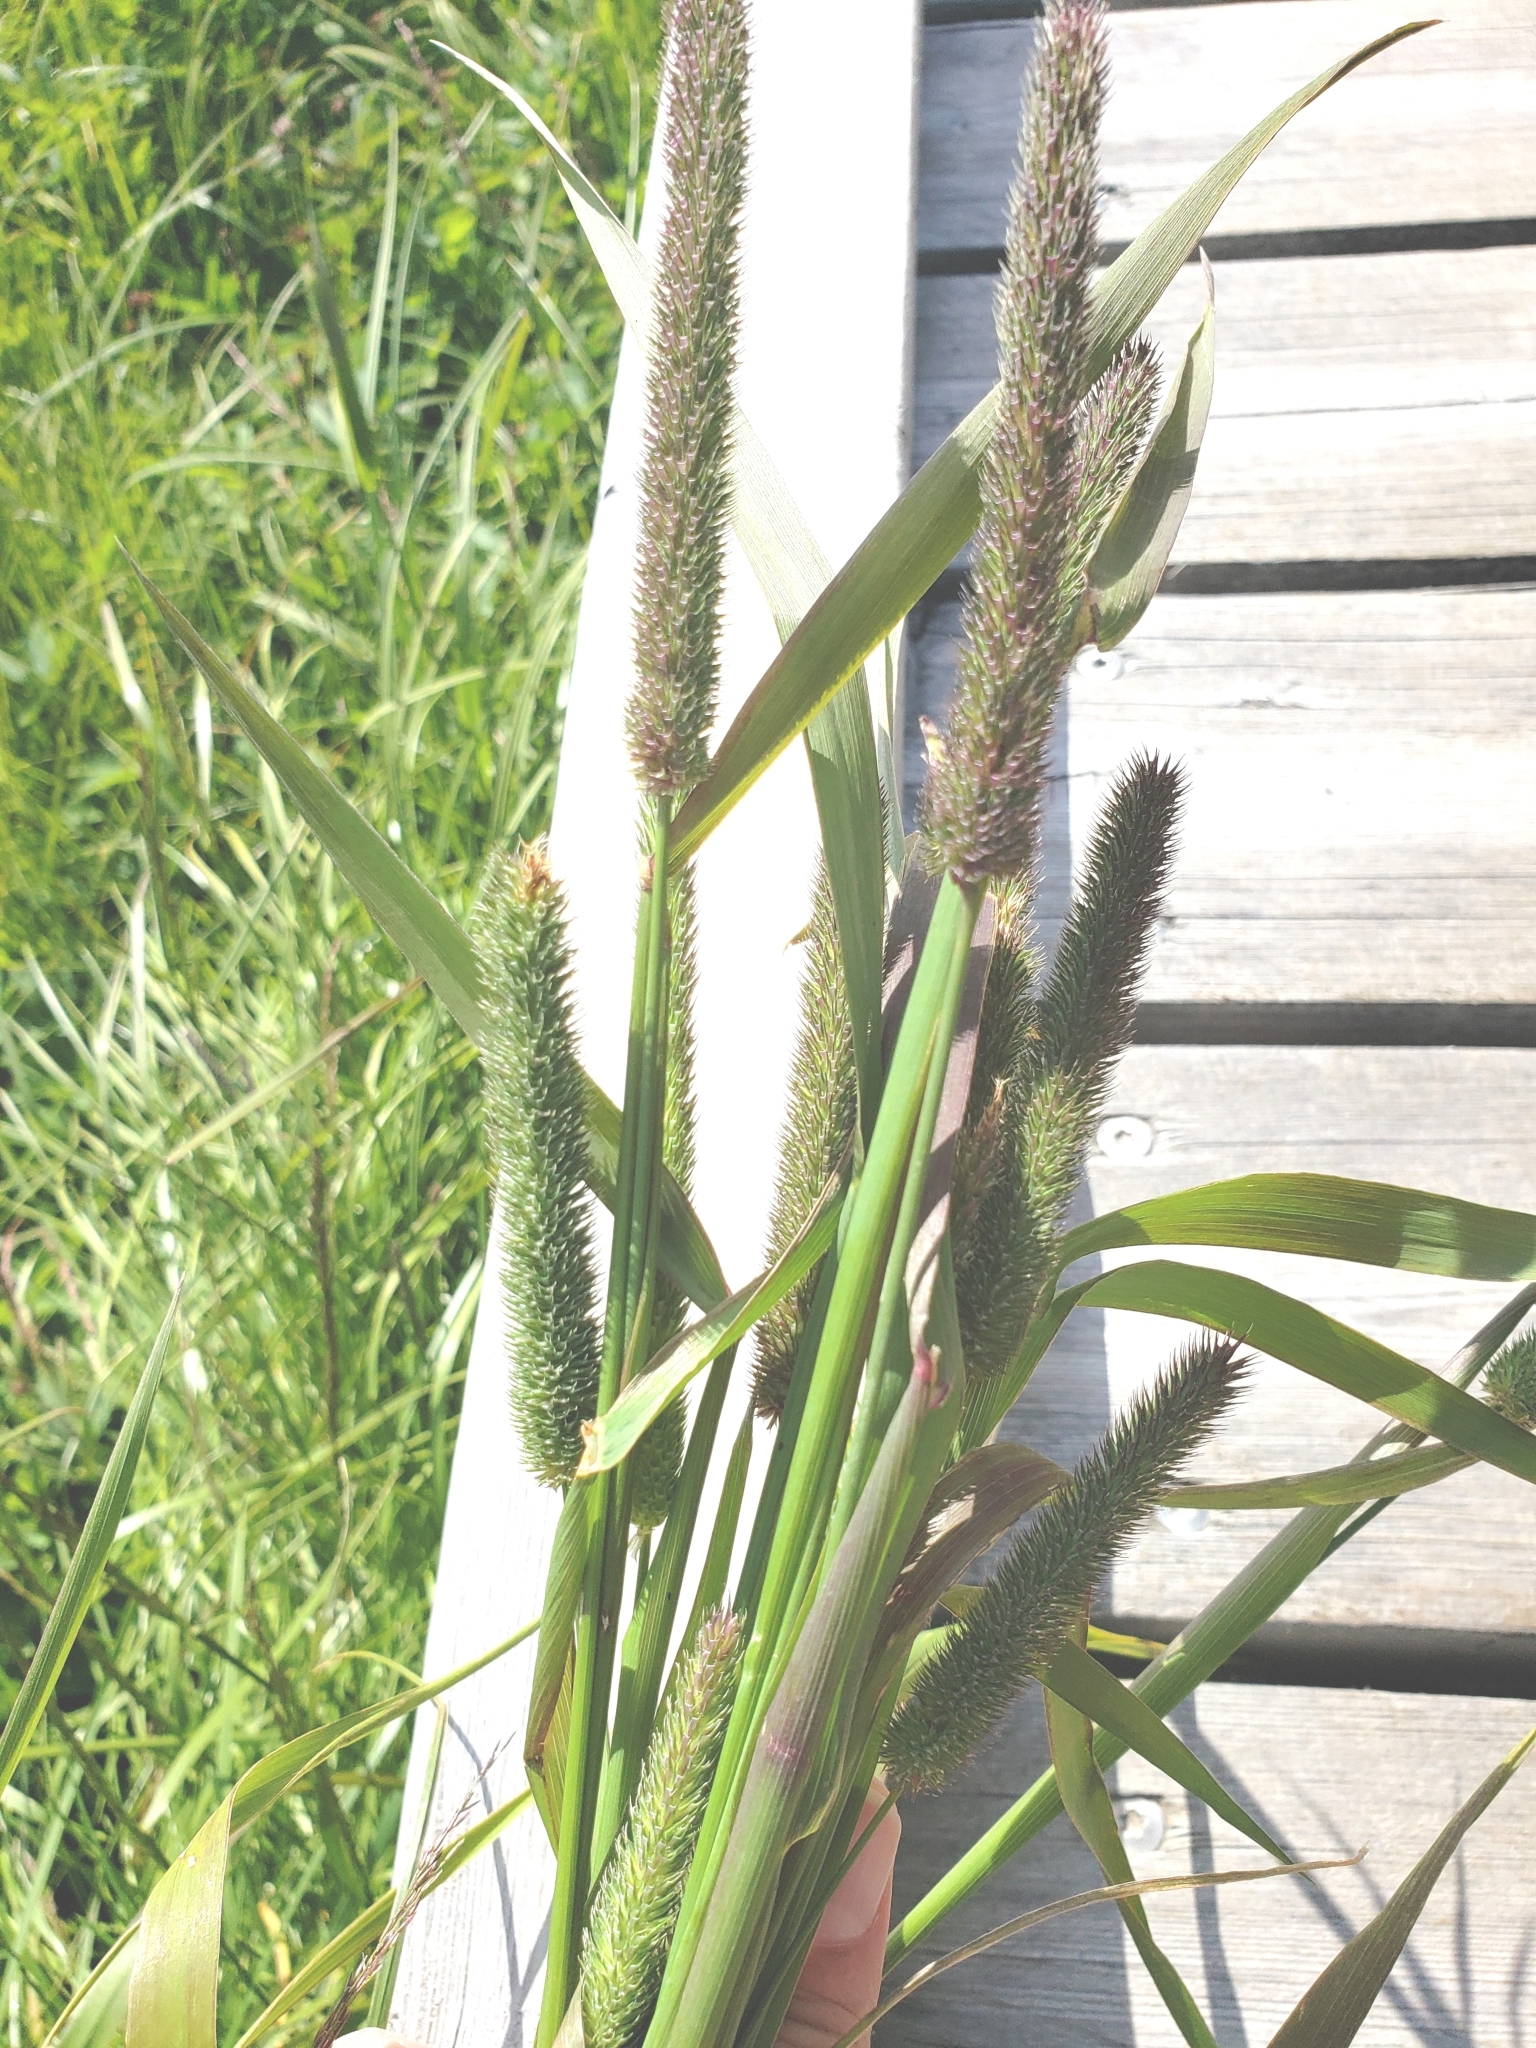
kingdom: Plantae
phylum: Tracheophyta
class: Liliopsida
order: Poales
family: Poaceae
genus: Phleum
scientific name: Phleum pratense
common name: Timothy grass
